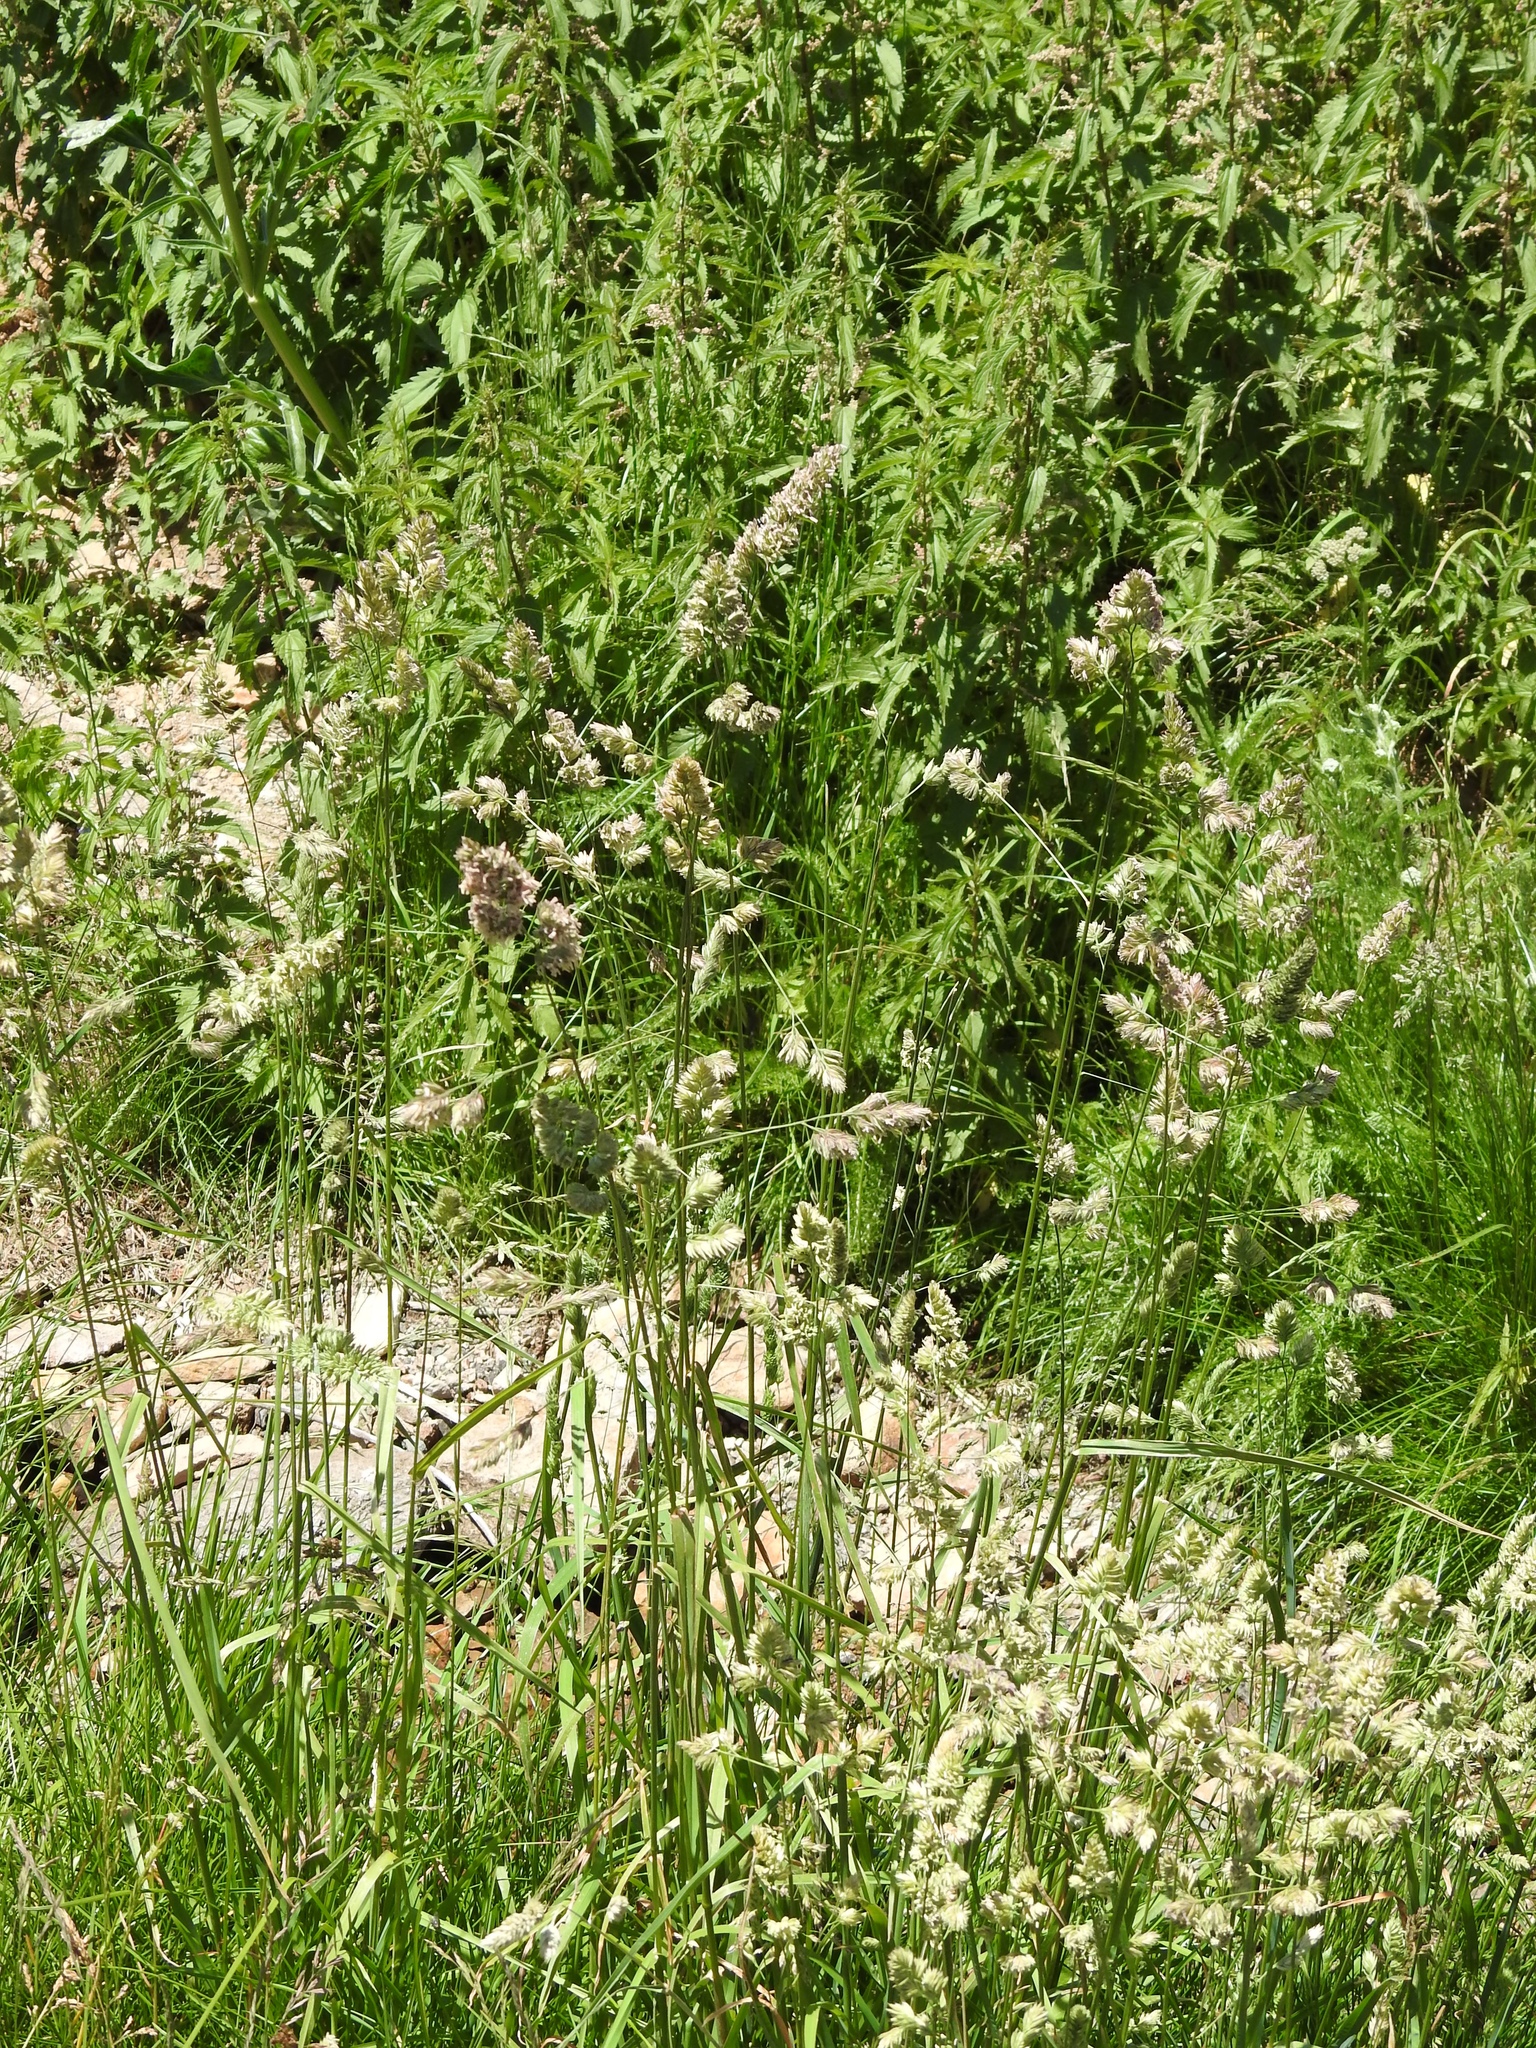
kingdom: Plantae
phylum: Tracheophyta
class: Liliopsida
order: Poales
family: Poaceae
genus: Dactylis
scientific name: Dactylis glomerata
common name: Orchardgrass
